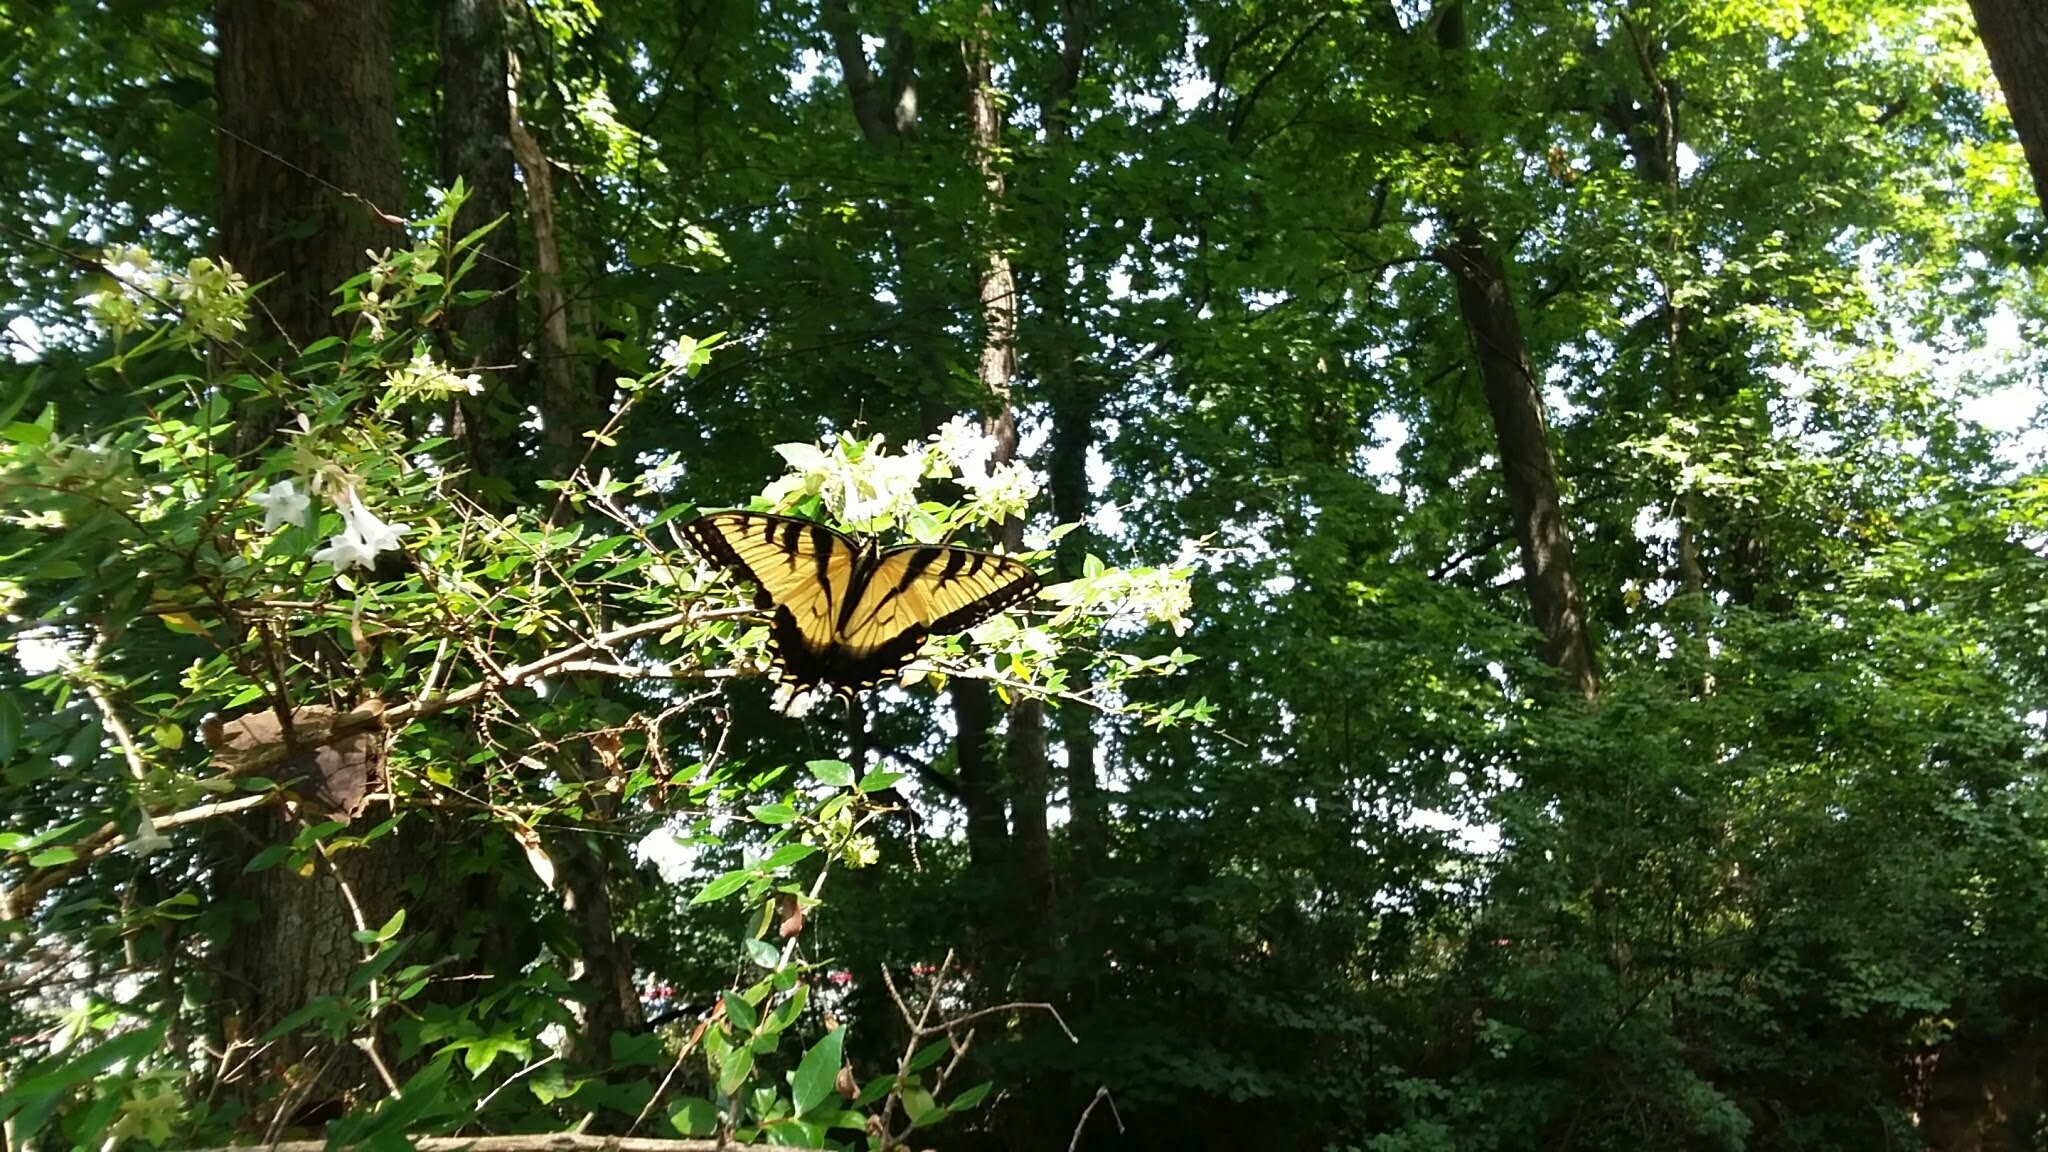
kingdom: Animalia
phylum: Arthropoda
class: Insecta
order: Lepidoptera
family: Papilionidae
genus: Papilio
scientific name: Papilio glaucus
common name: Tiger swallowtail
